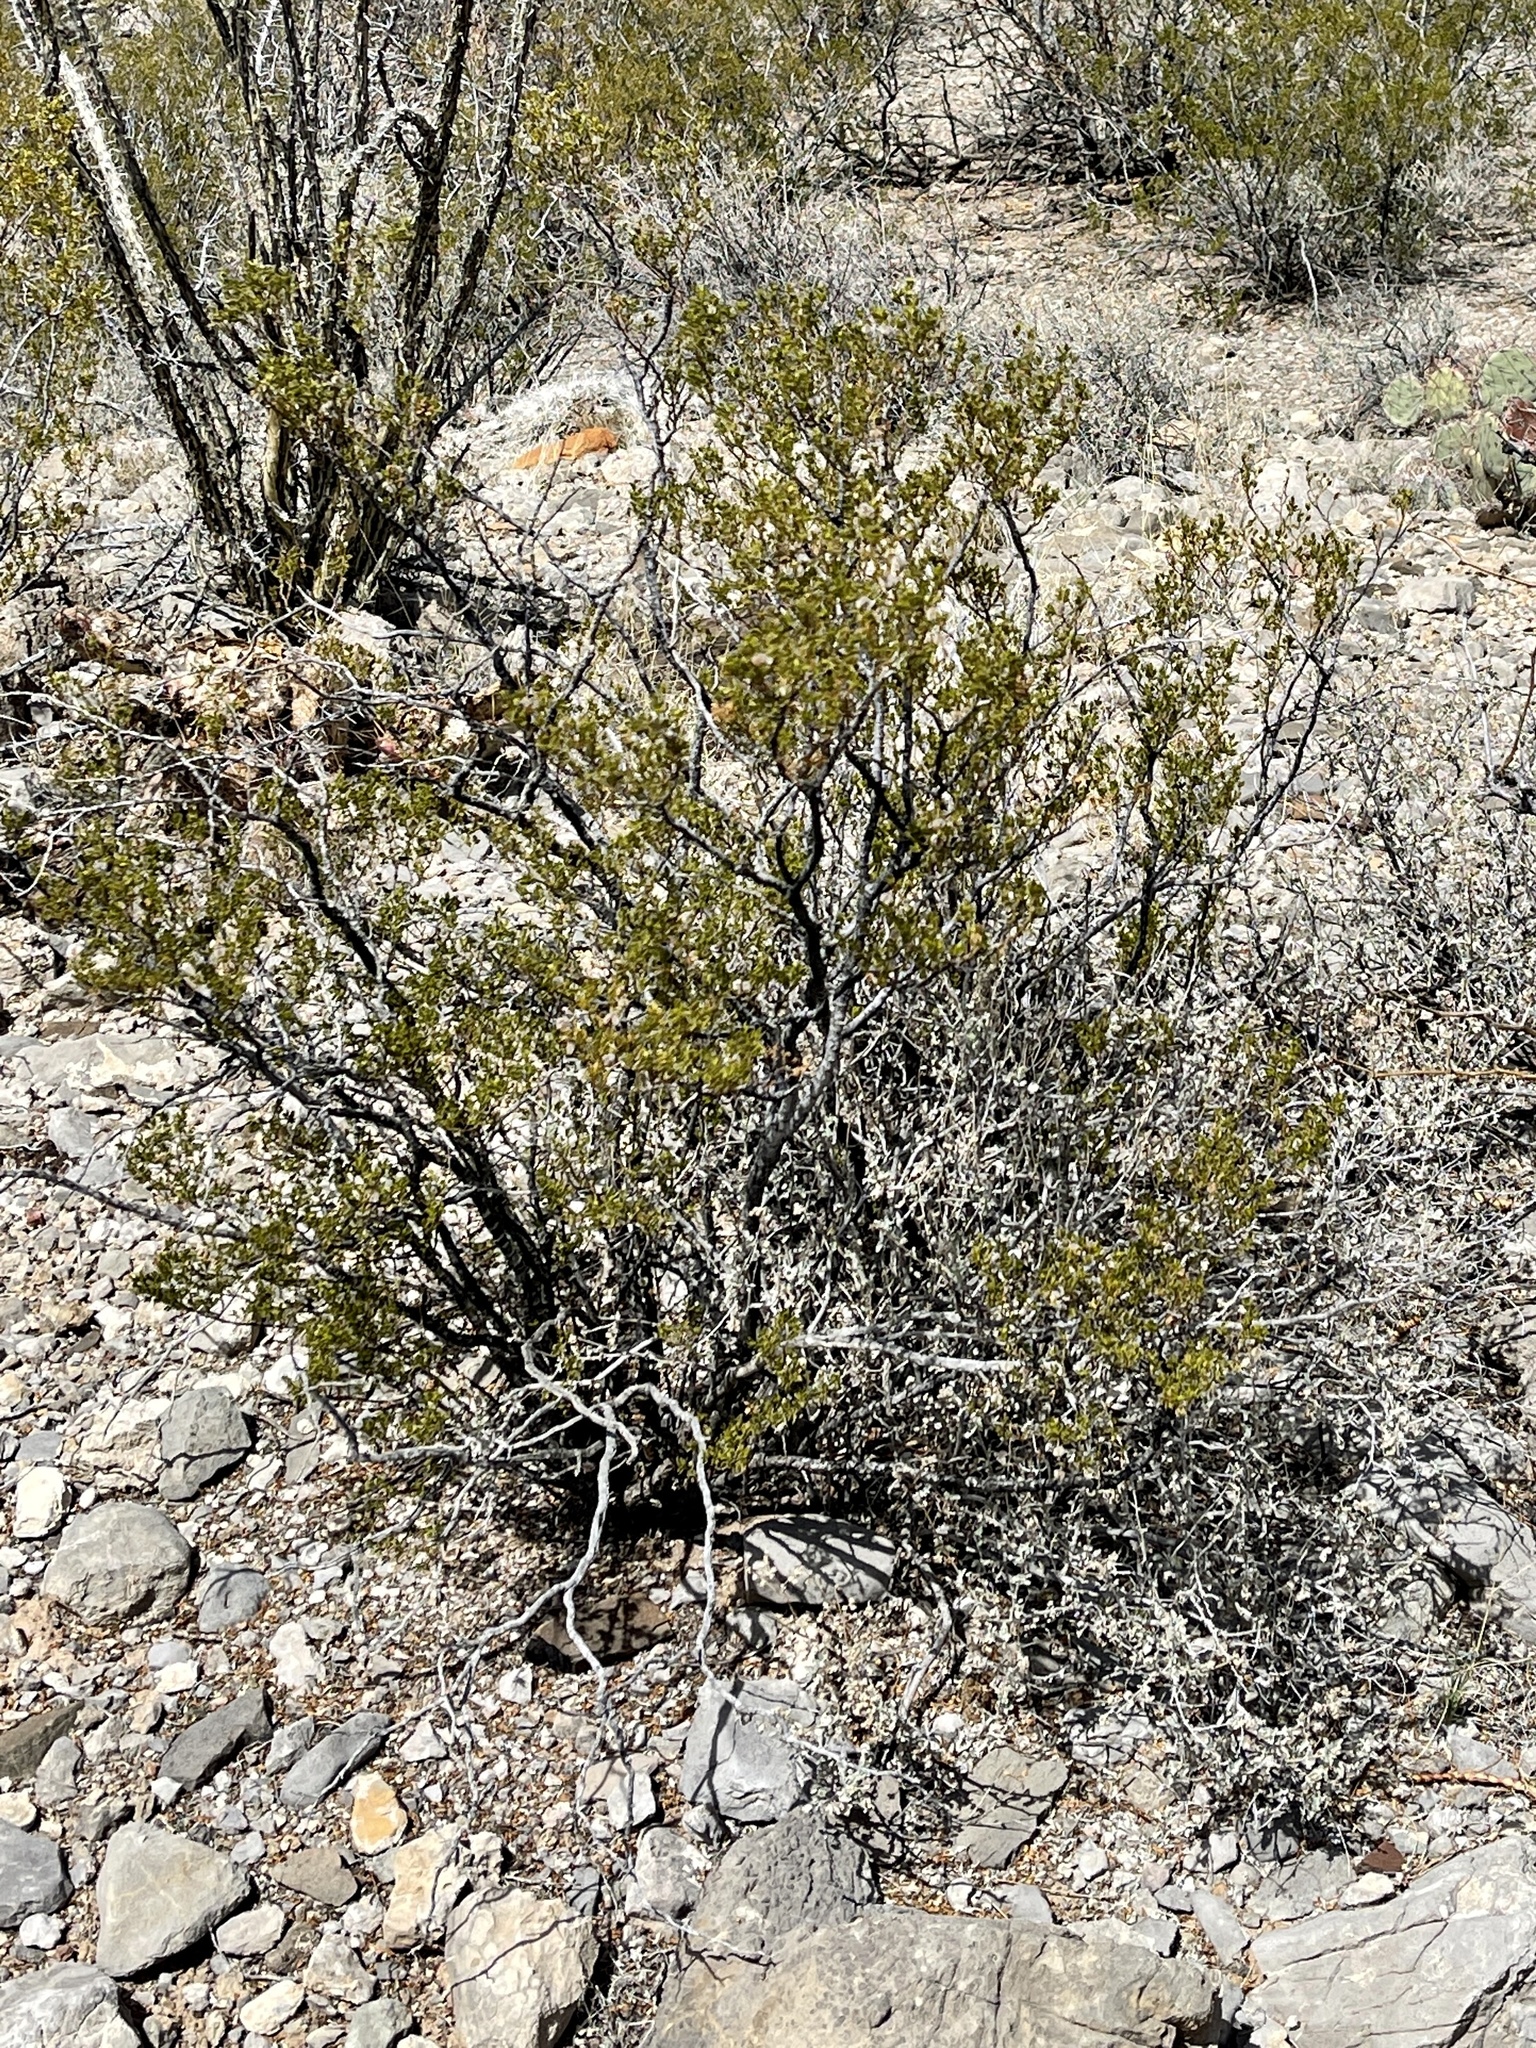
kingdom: Plantae
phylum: Tracheophyta
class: Magnoliopsida
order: Zygophyllales
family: Zygophyllaceae
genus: Larrea
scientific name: Larrea tridentata
